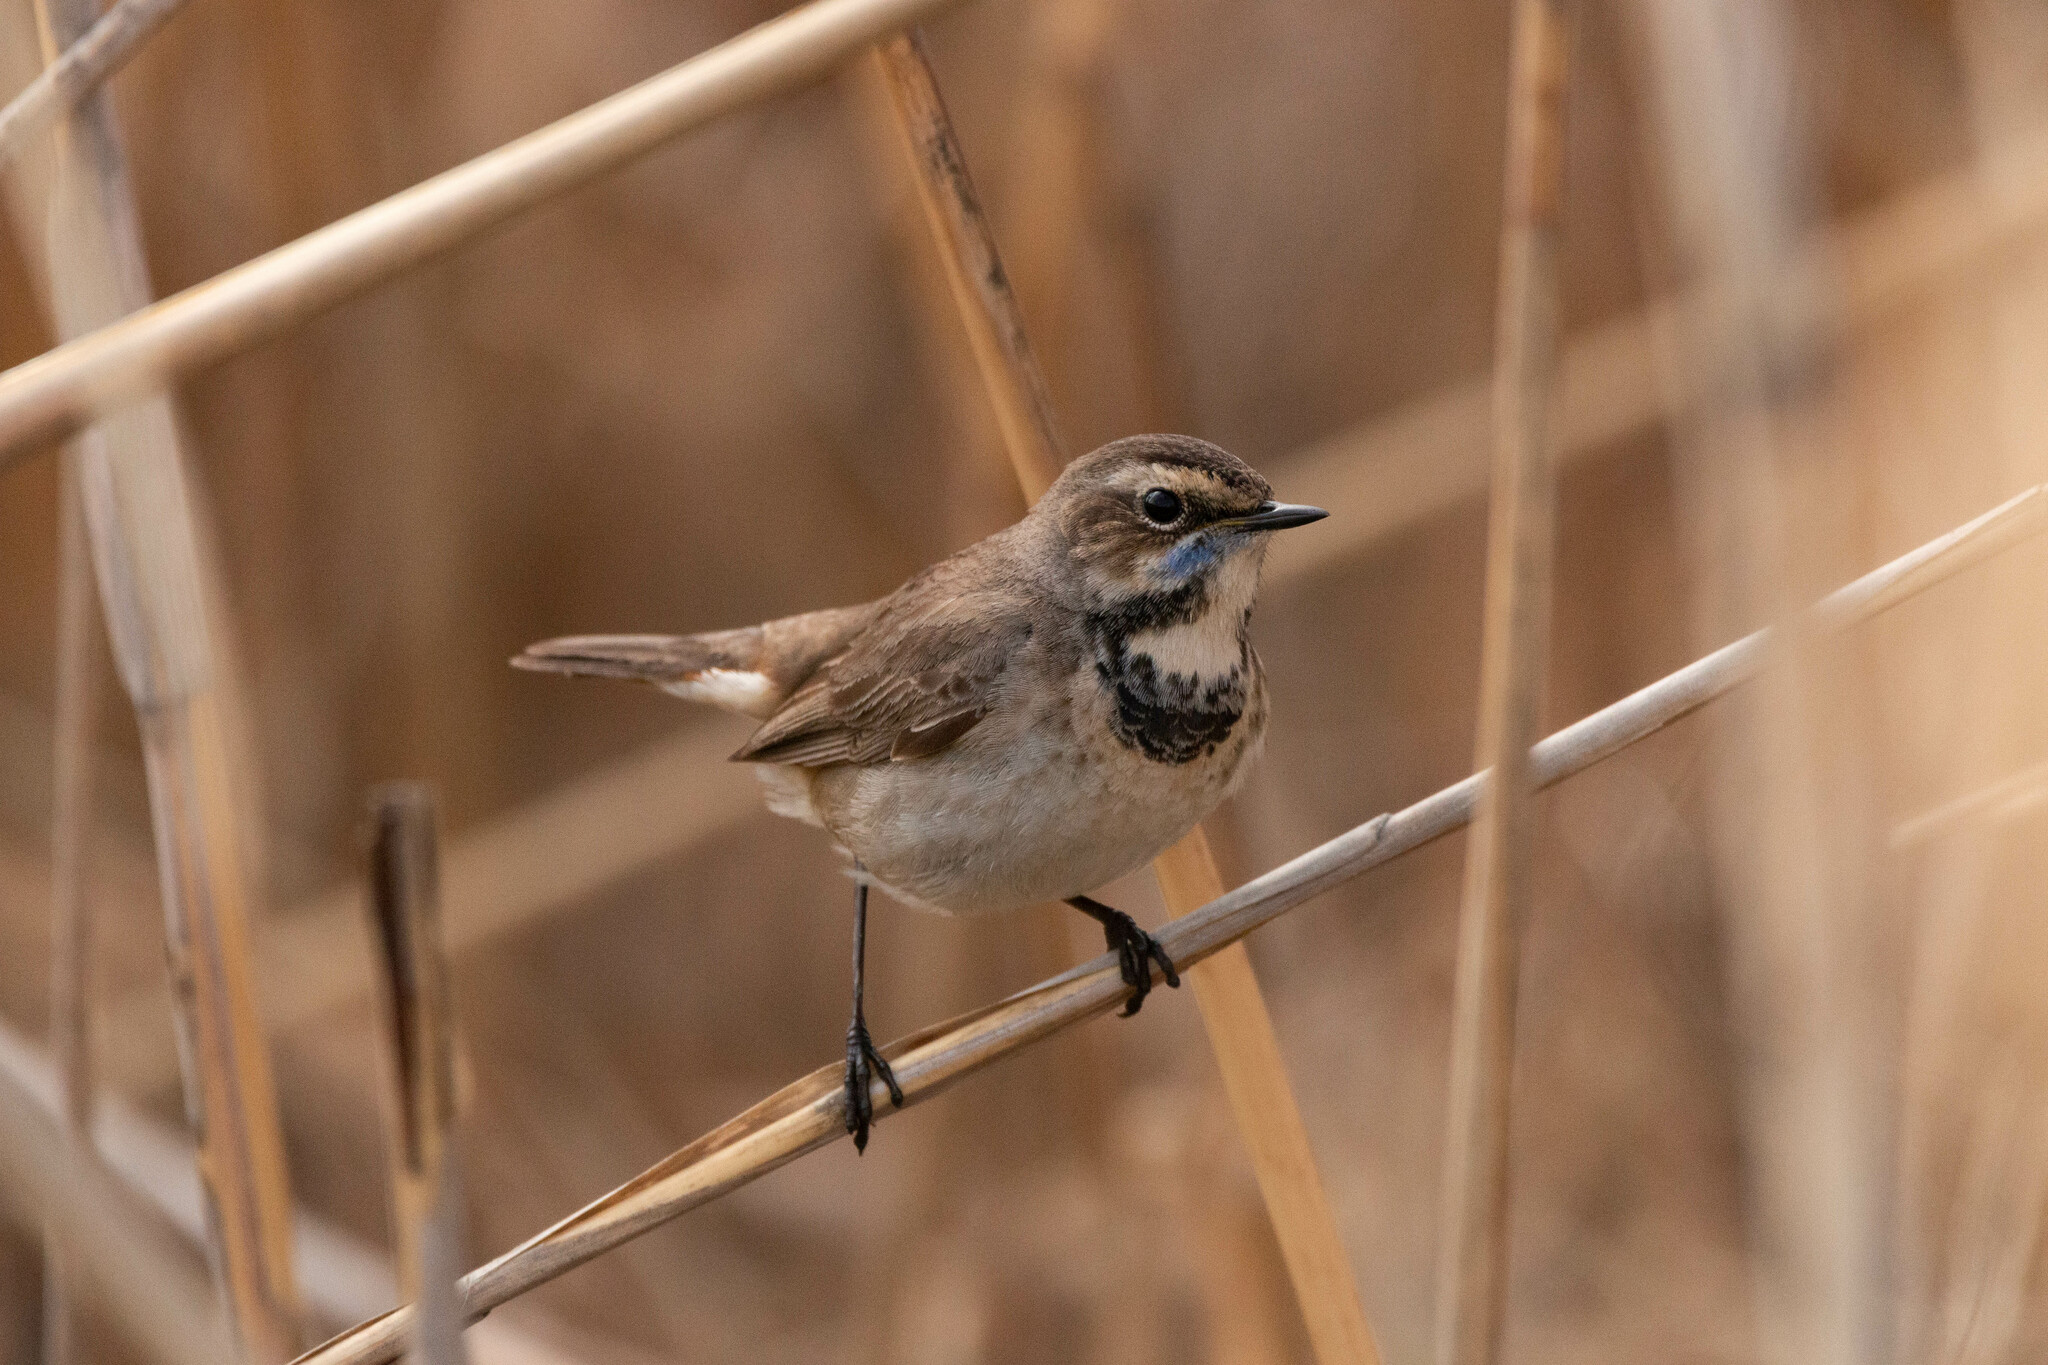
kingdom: Animalia
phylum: Chordata
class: Aves
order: Passeriformes
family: Muscicapidae
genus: Luscinia
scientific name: Luscinia svecica
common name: Bluethroat
